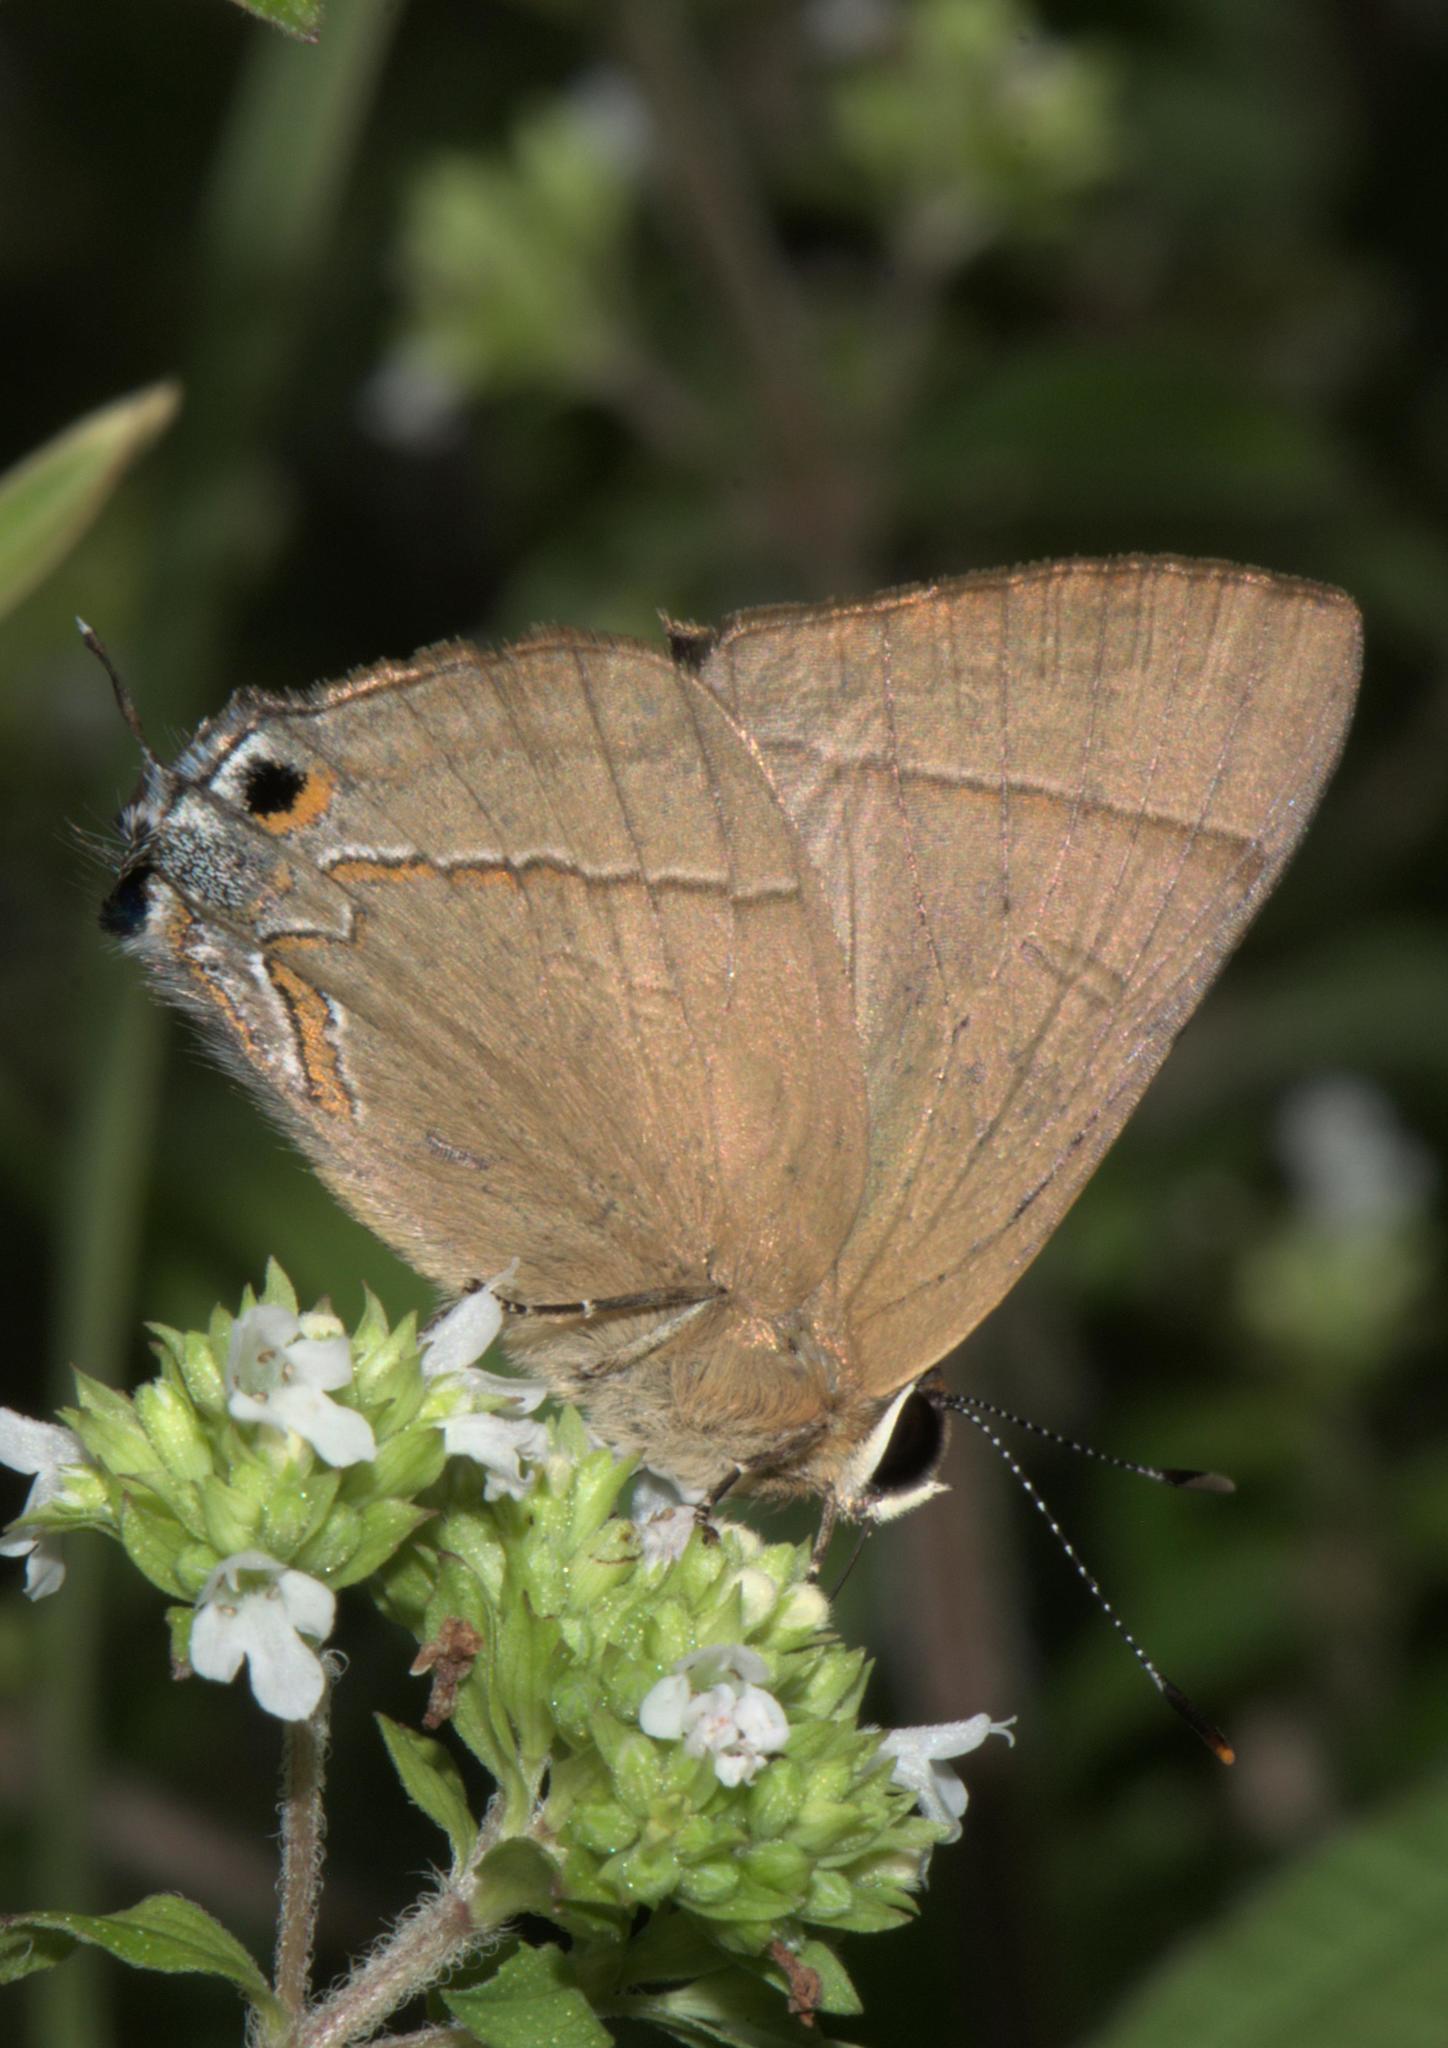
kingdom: Animalia
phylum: Arthropoda
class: Insecta
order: Lepidoptera
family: Lycaenidae
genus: Rapala
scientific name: Rapala nissa
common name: Common flash
